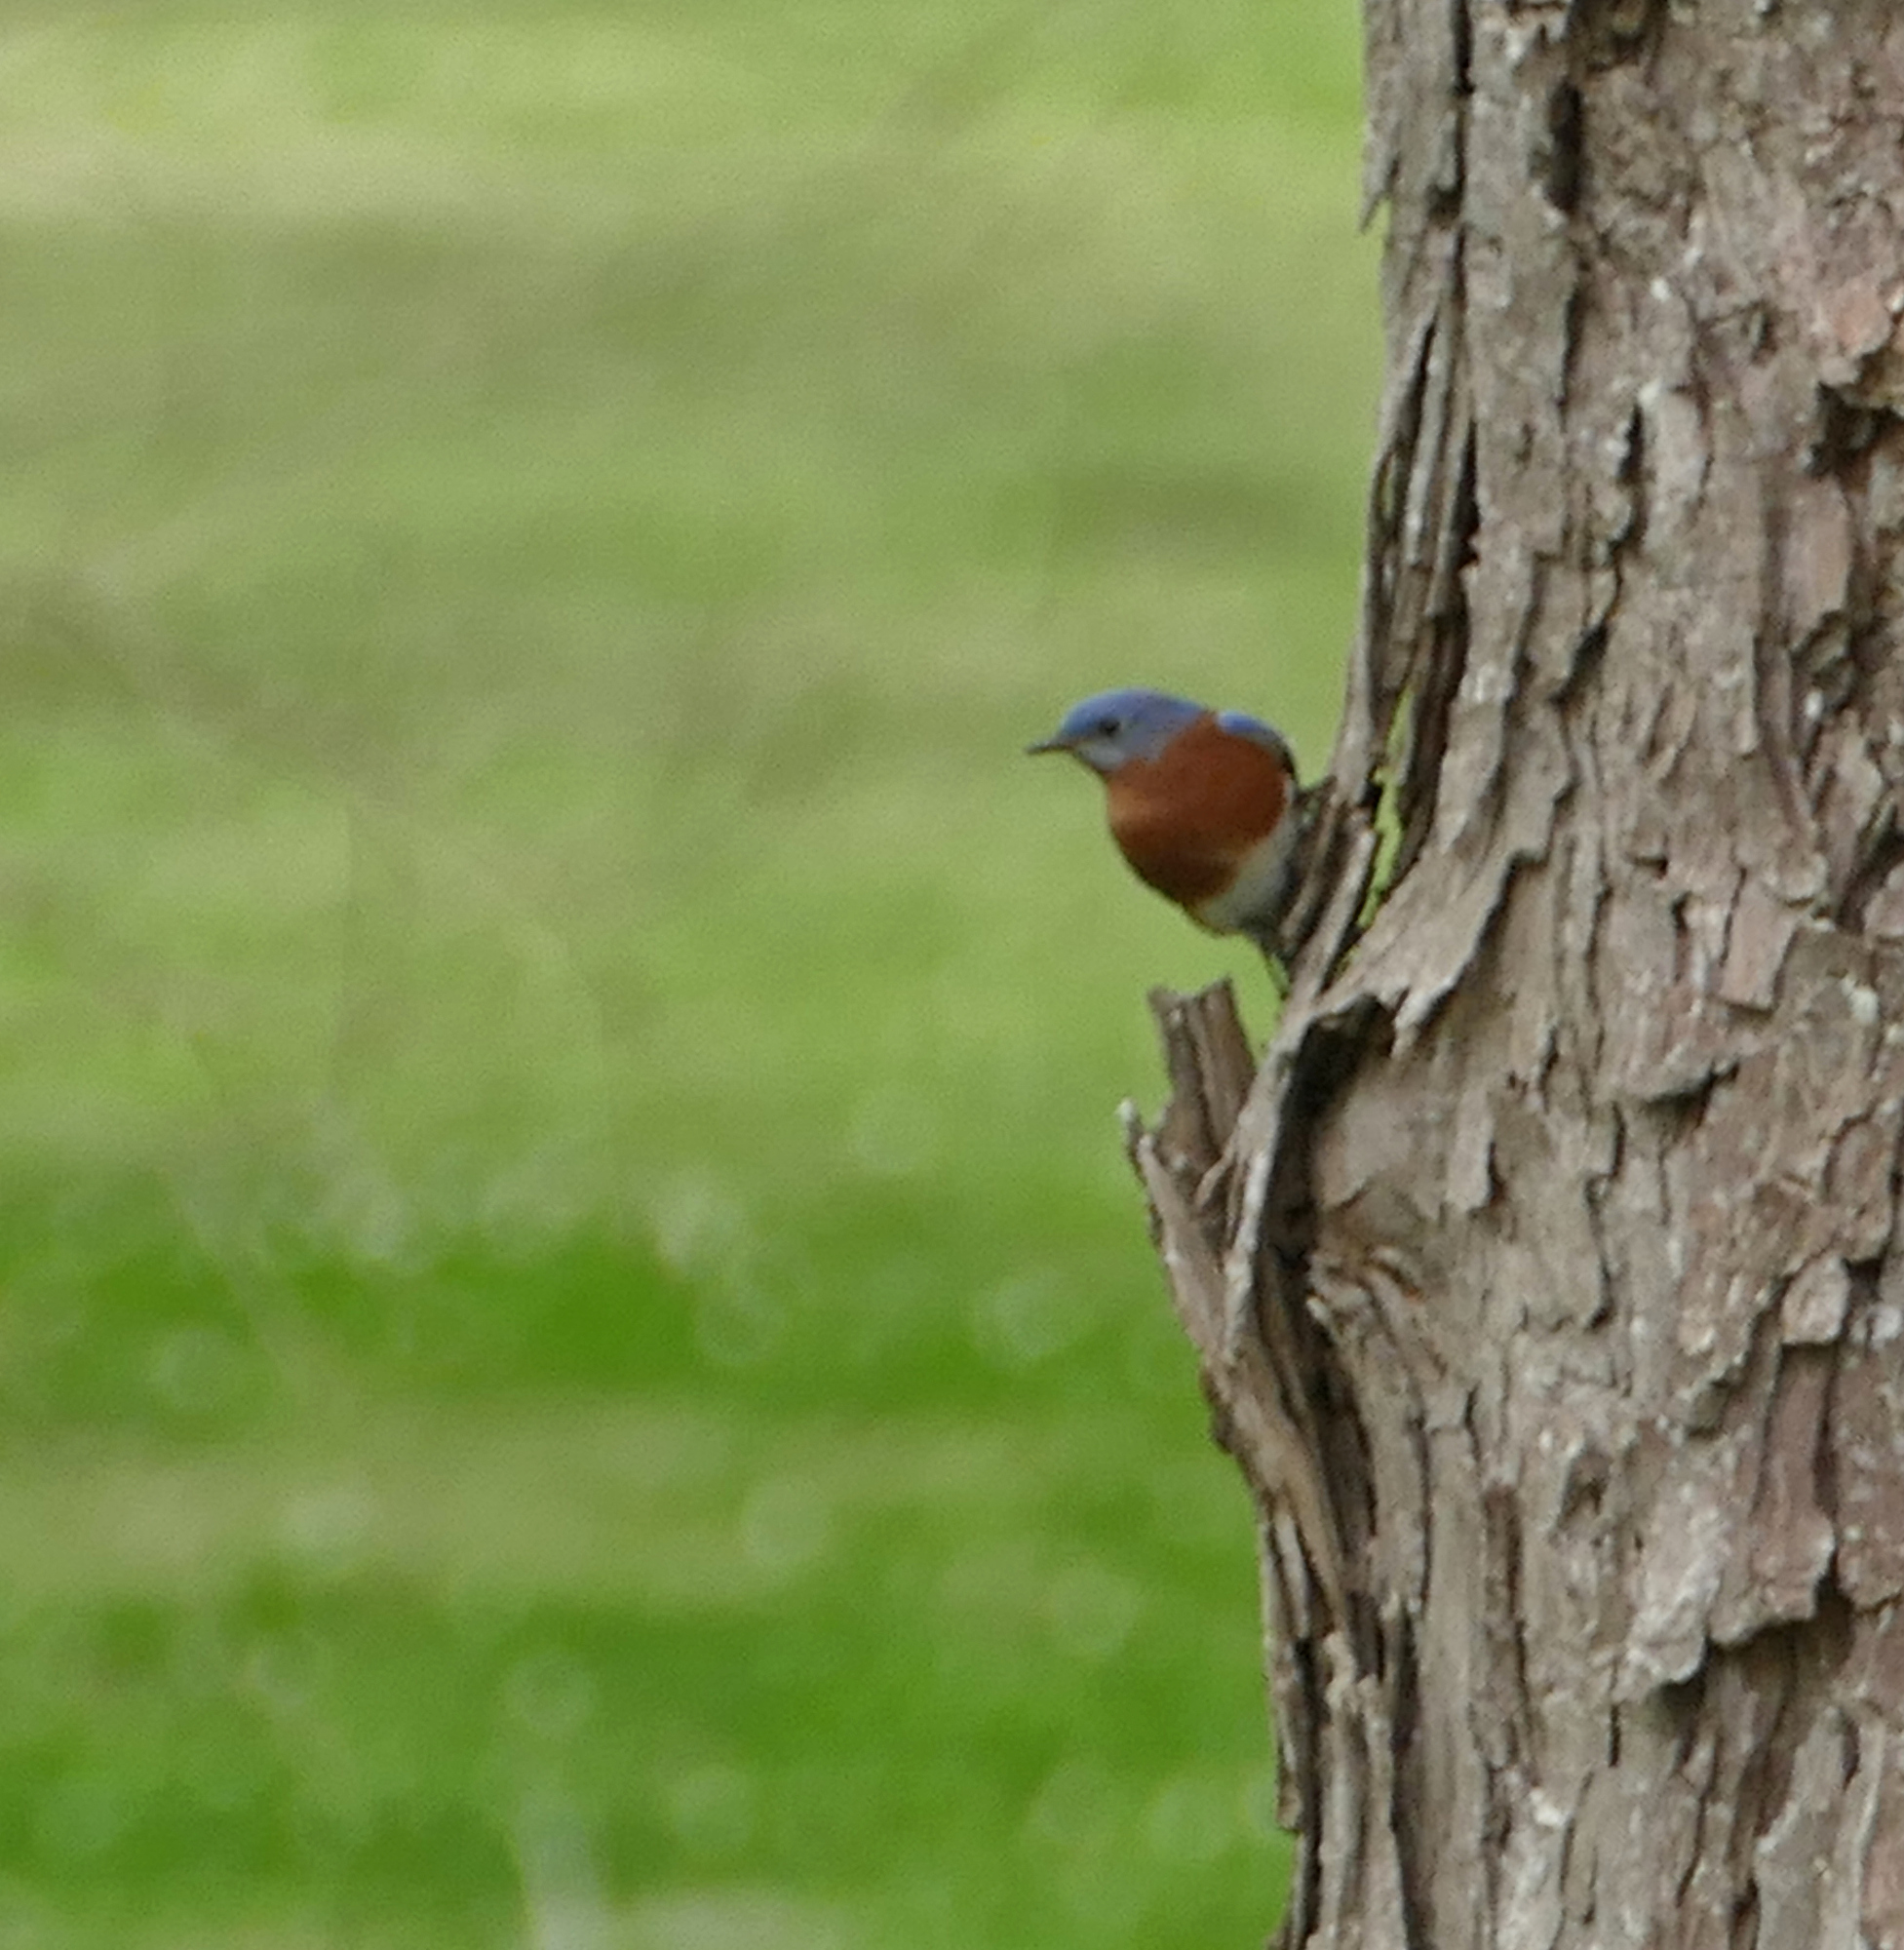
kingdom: Animalia
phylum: Chordata
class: Aves
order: Passeriformes
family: Turdidae
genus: Sialia
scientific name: Sialia sialis
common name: Eastern bluebird
